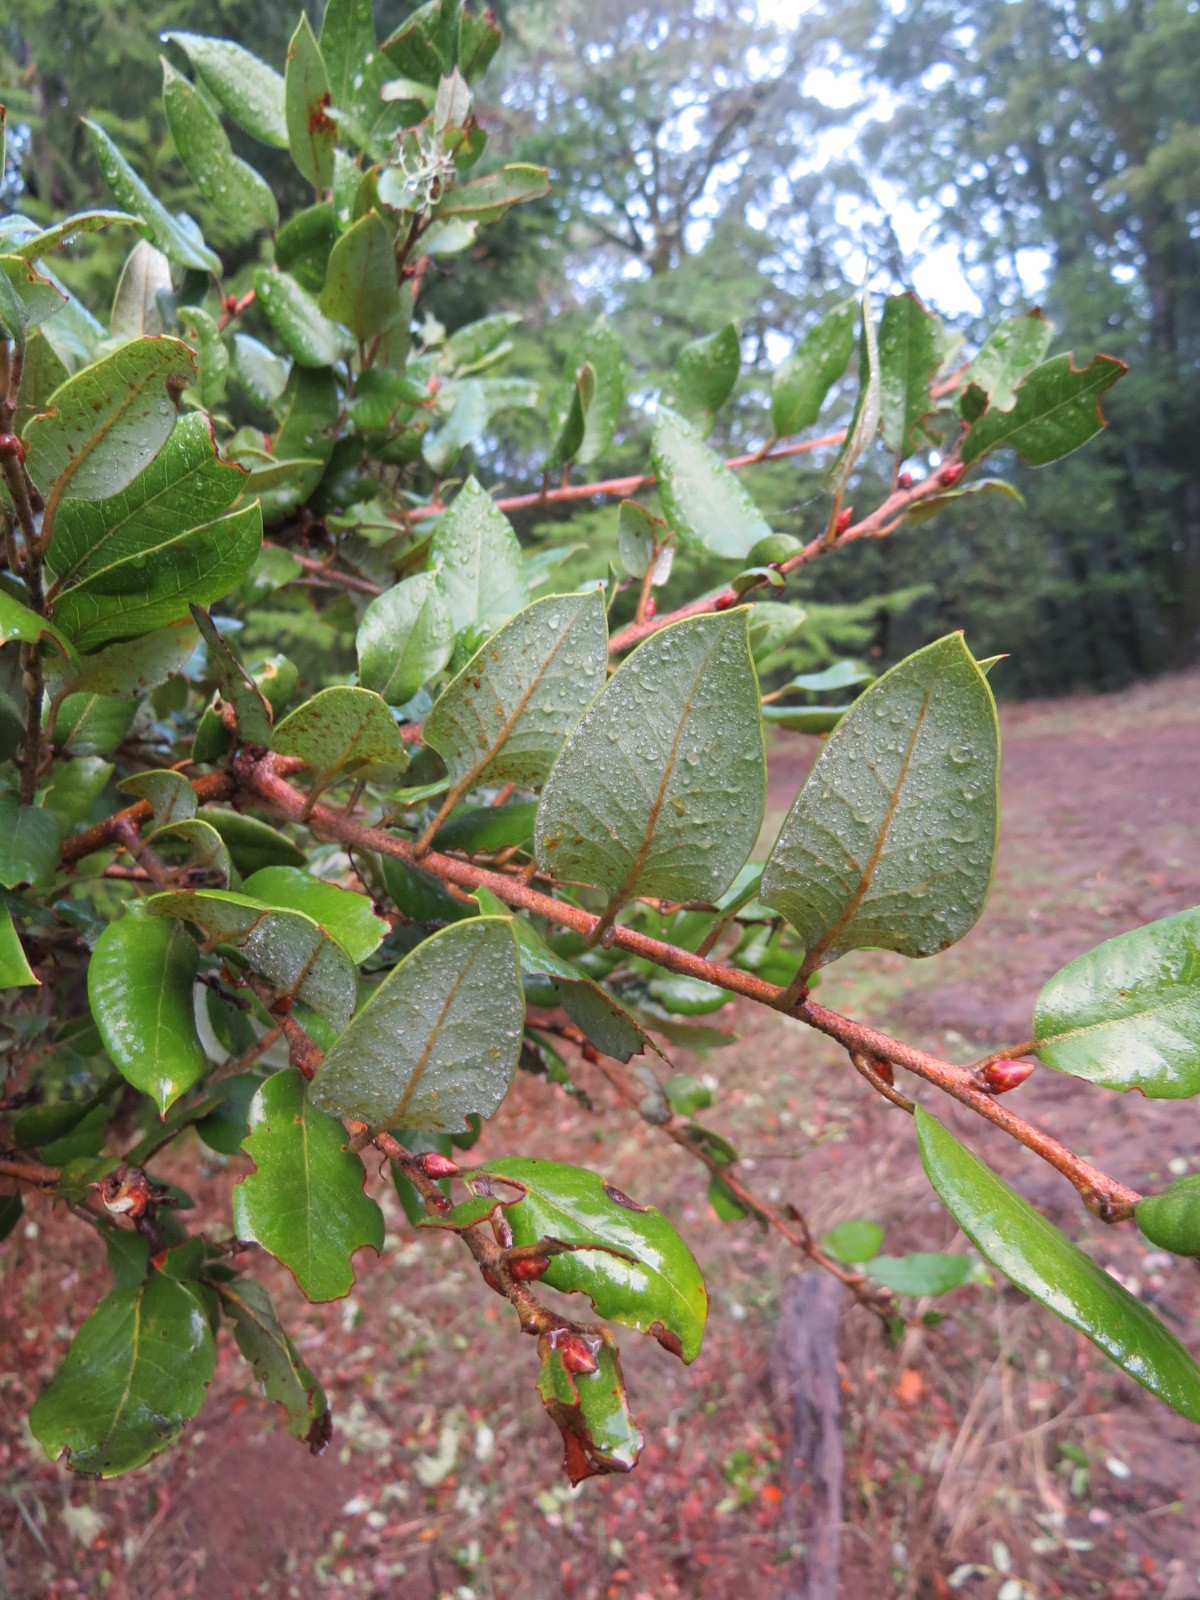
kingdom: Plantae
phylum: Tracheophyta
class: Magnoliopsida
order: Fagales
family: Fagaceae
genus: Quercus
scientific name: Quercus chrysolepis
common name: Canyon live oak
